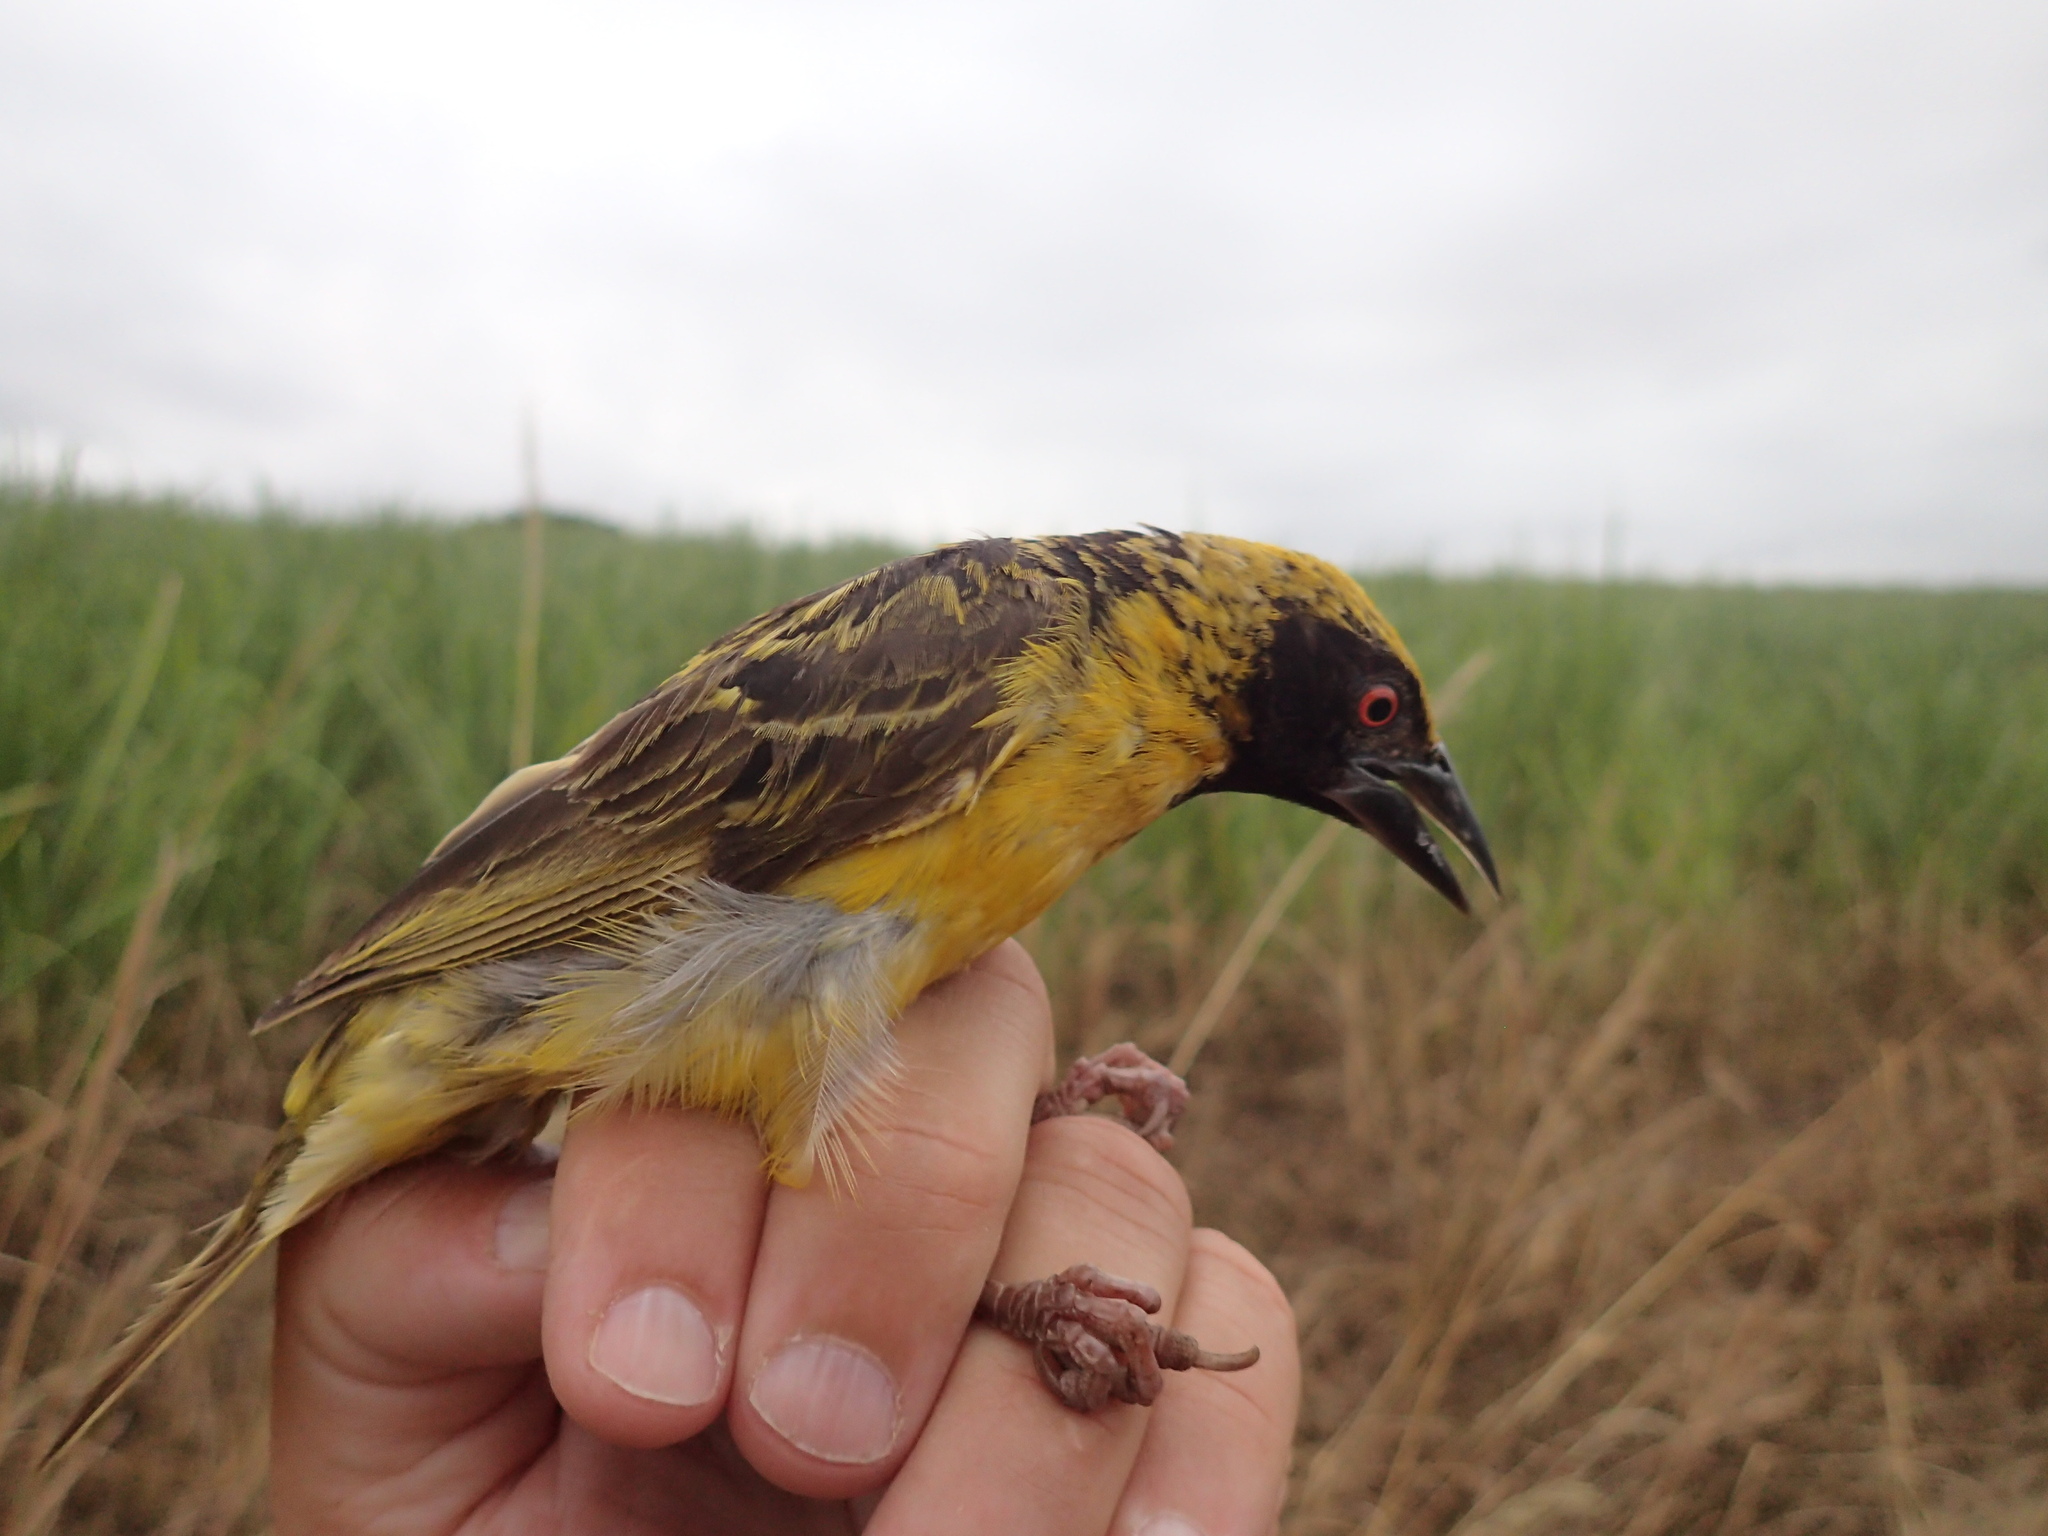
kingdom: Animalia
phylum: Chordata
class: Aves
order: Passeriformes
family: Ploceidae
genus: Ploceus
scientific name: Ploceus cucullatus
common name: Village weaver
